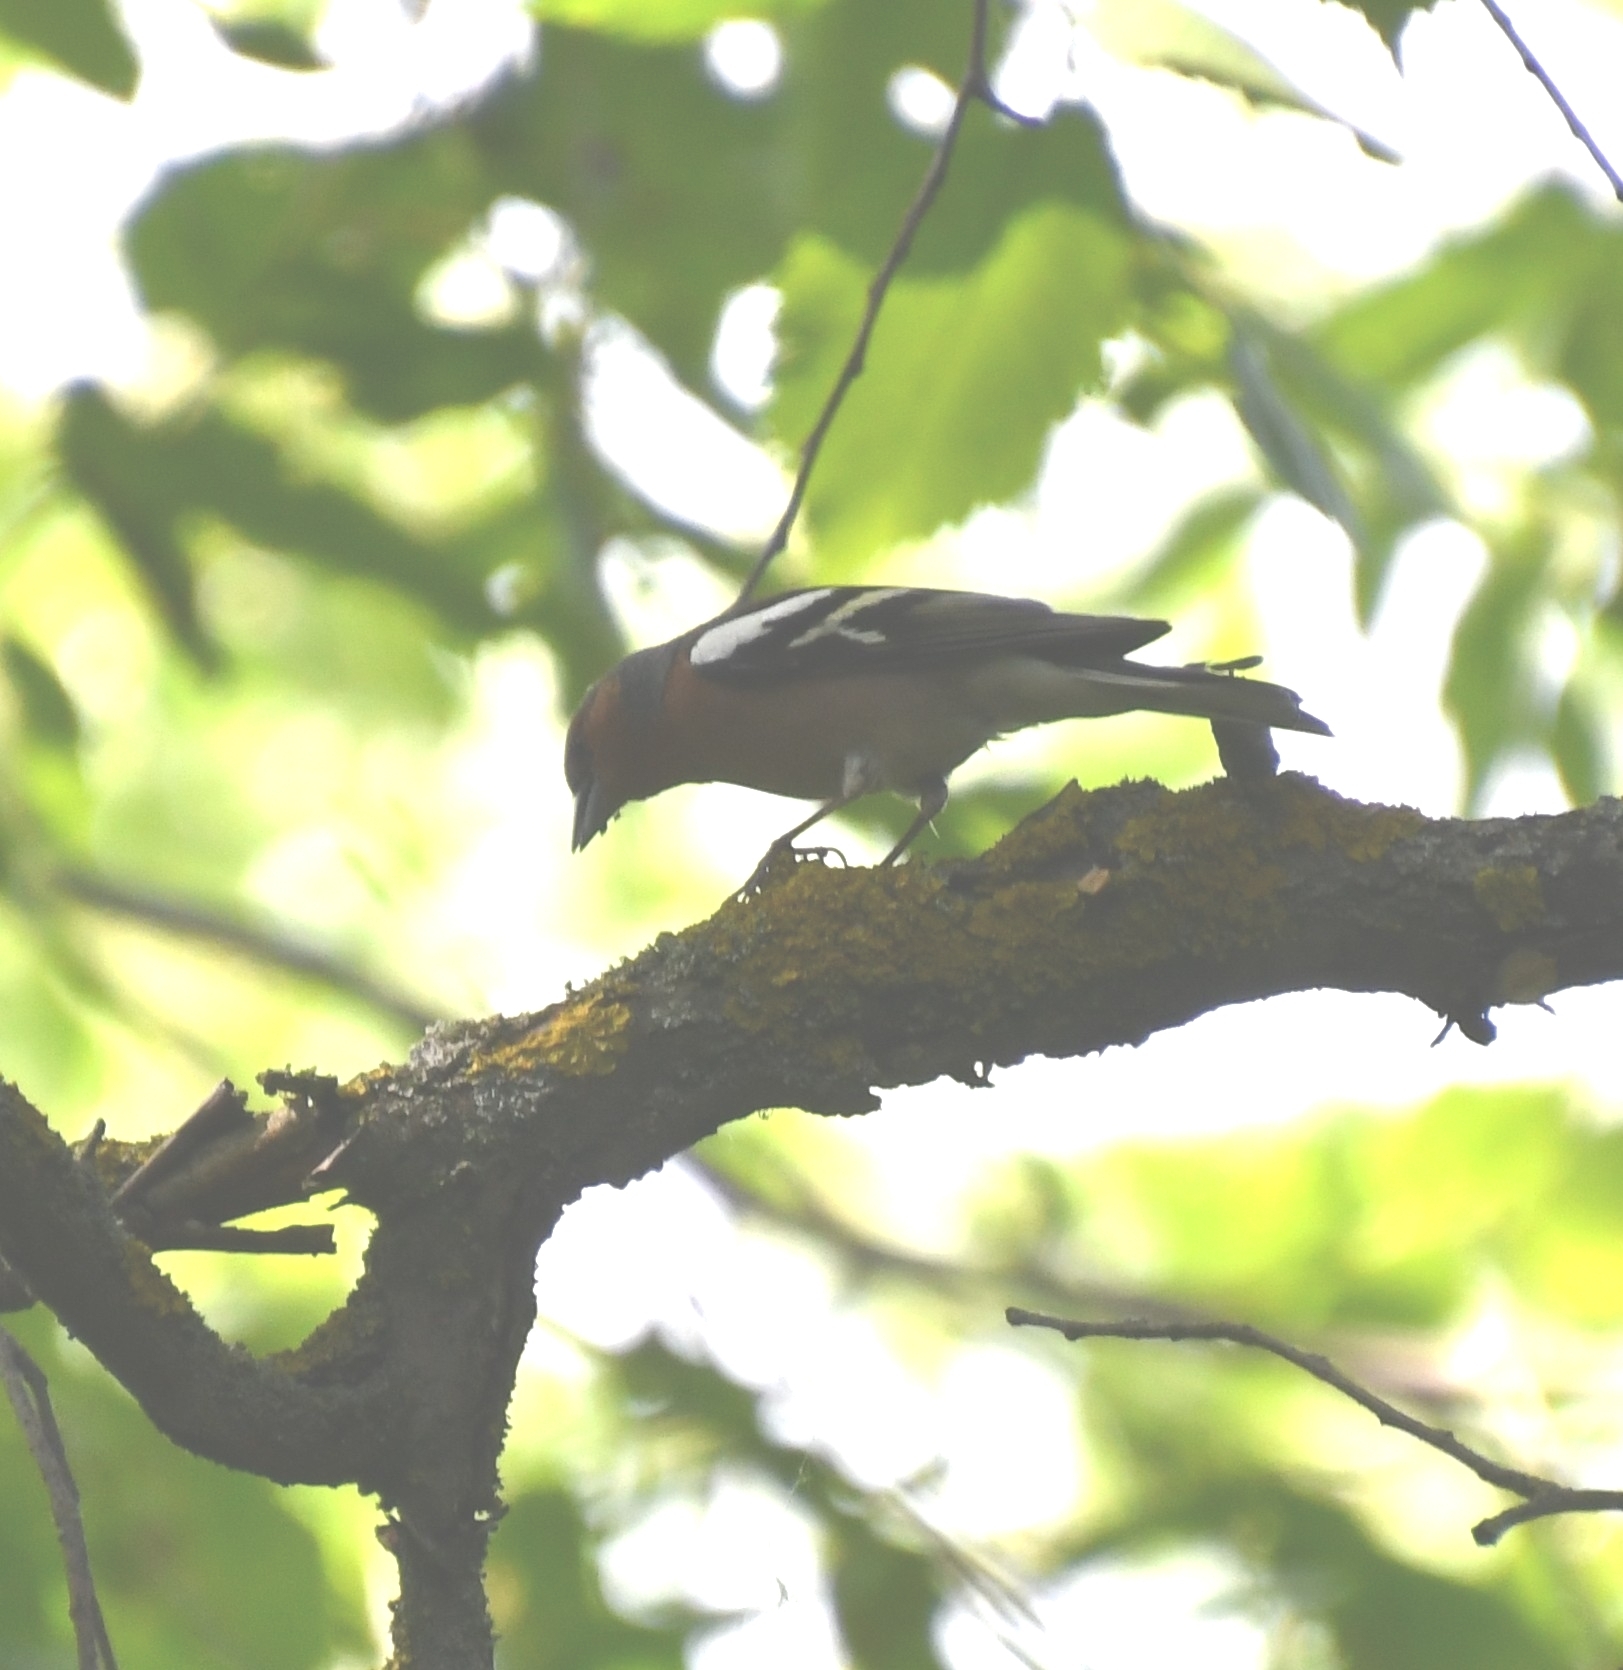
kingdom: Animalia
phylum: Chordata
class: Aves
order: Passeriformes
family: Fringillidae
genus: Fringilla
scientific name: Fringilla coelebs
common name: Common chaffinch
